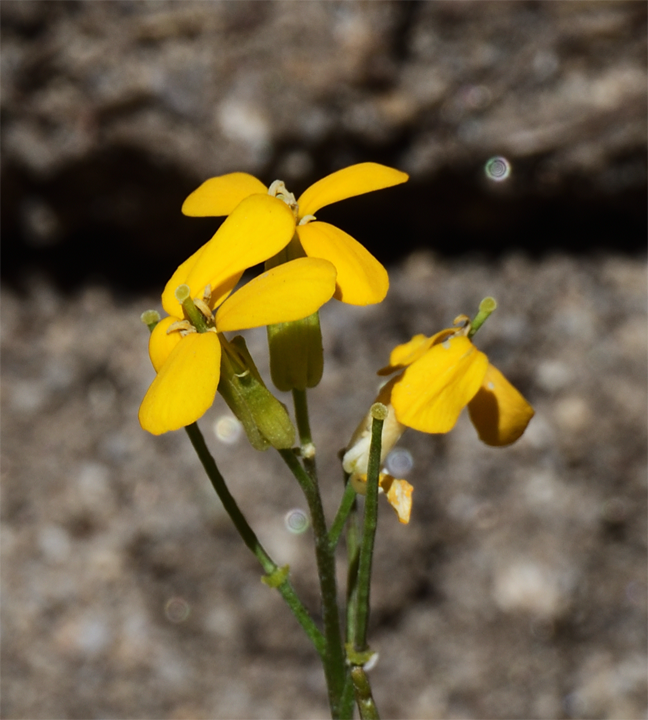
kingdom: Plantae
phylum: Tracheophyta
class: Magnoliopsida
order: Brassicales
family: Brassicaceae
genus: Erysimum
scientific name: Erysimum capitatum
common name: Western wallflower
